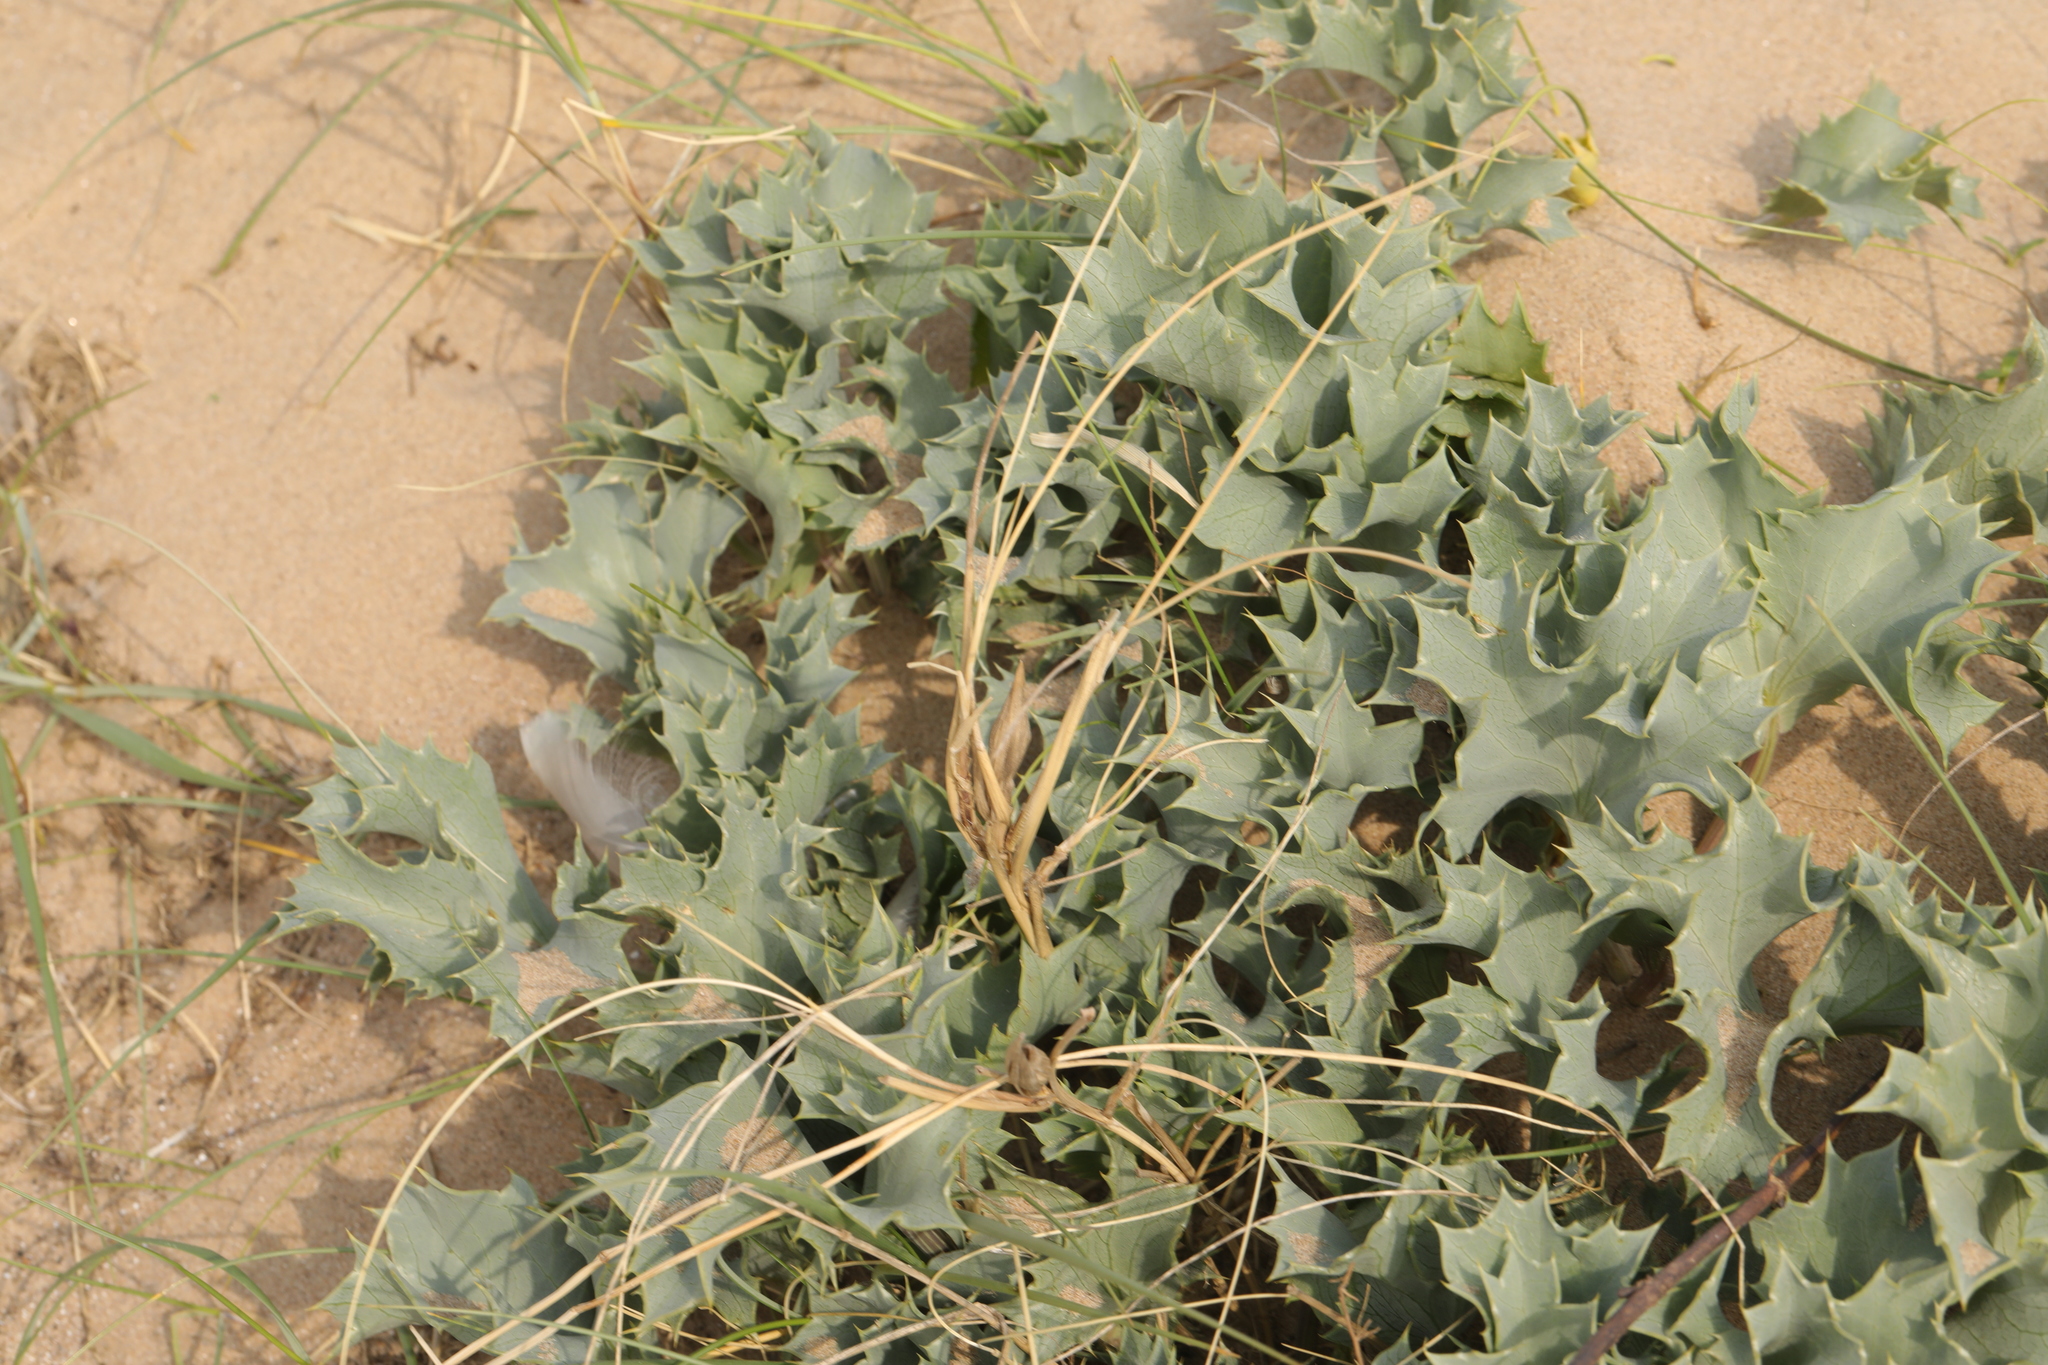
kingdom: Plantae
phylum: Tracheophyta
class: Magnoliopsida
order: Apiales
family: Apiaceae
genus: Eryngium
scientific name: Eryngium maritimum
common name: Sea-holly
